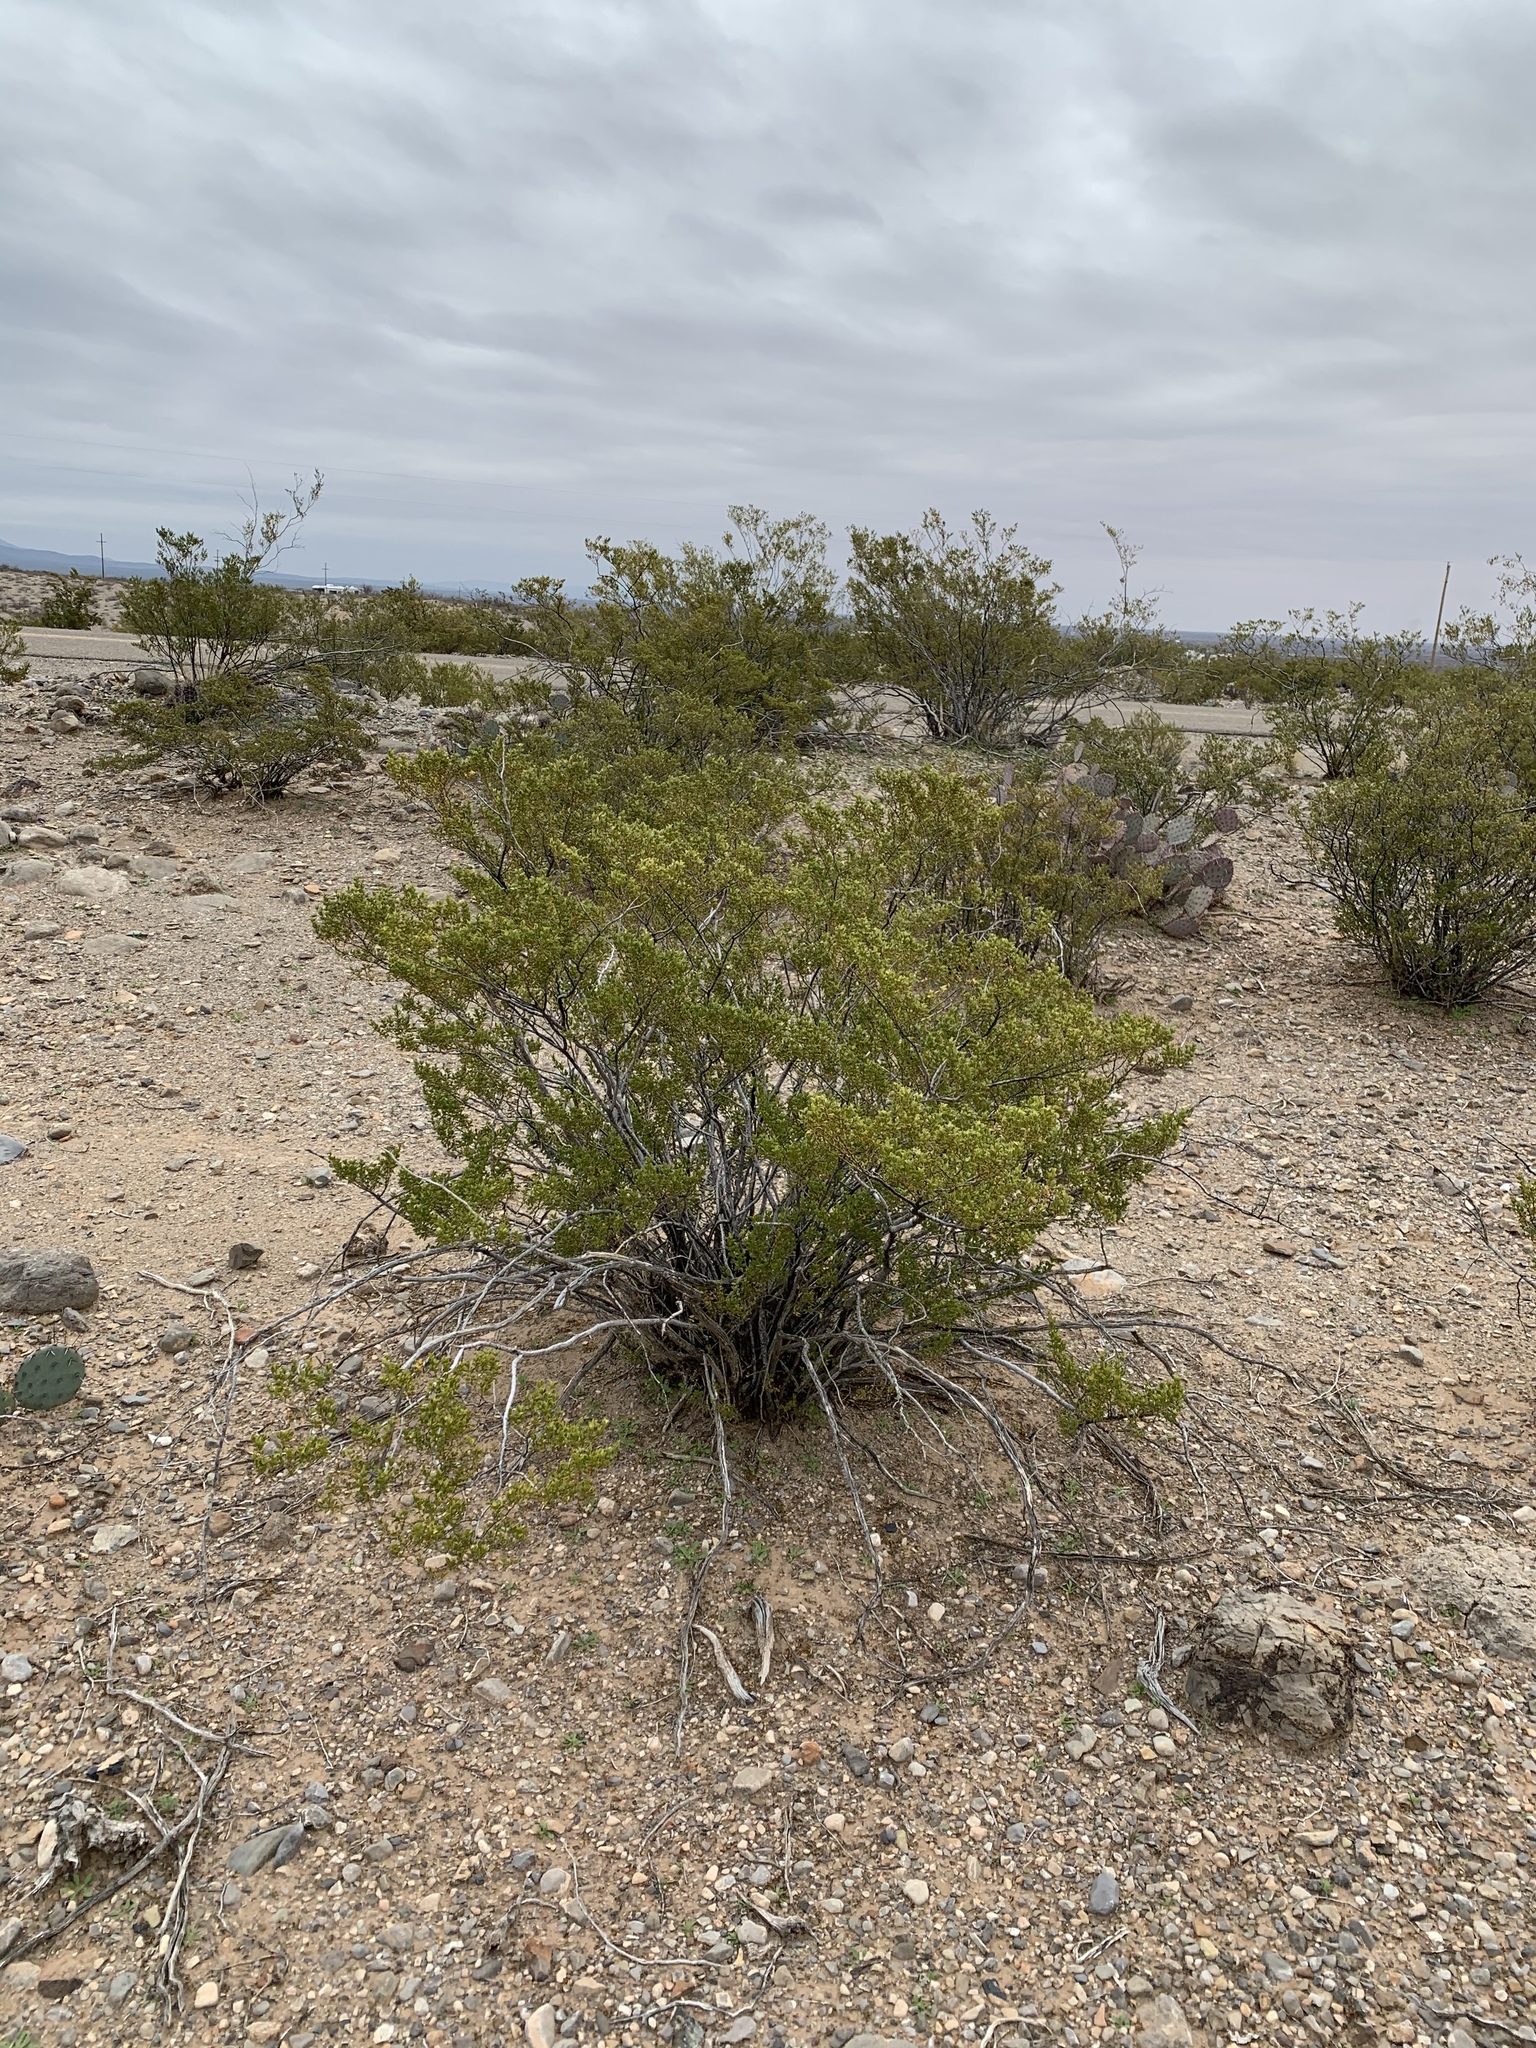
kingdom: Plantae
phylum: Tracheophyta
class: Magnoliopsida
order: Zygophyllales
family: Zygophyllaceae
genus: Larrea
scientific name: Larrea tridentata
